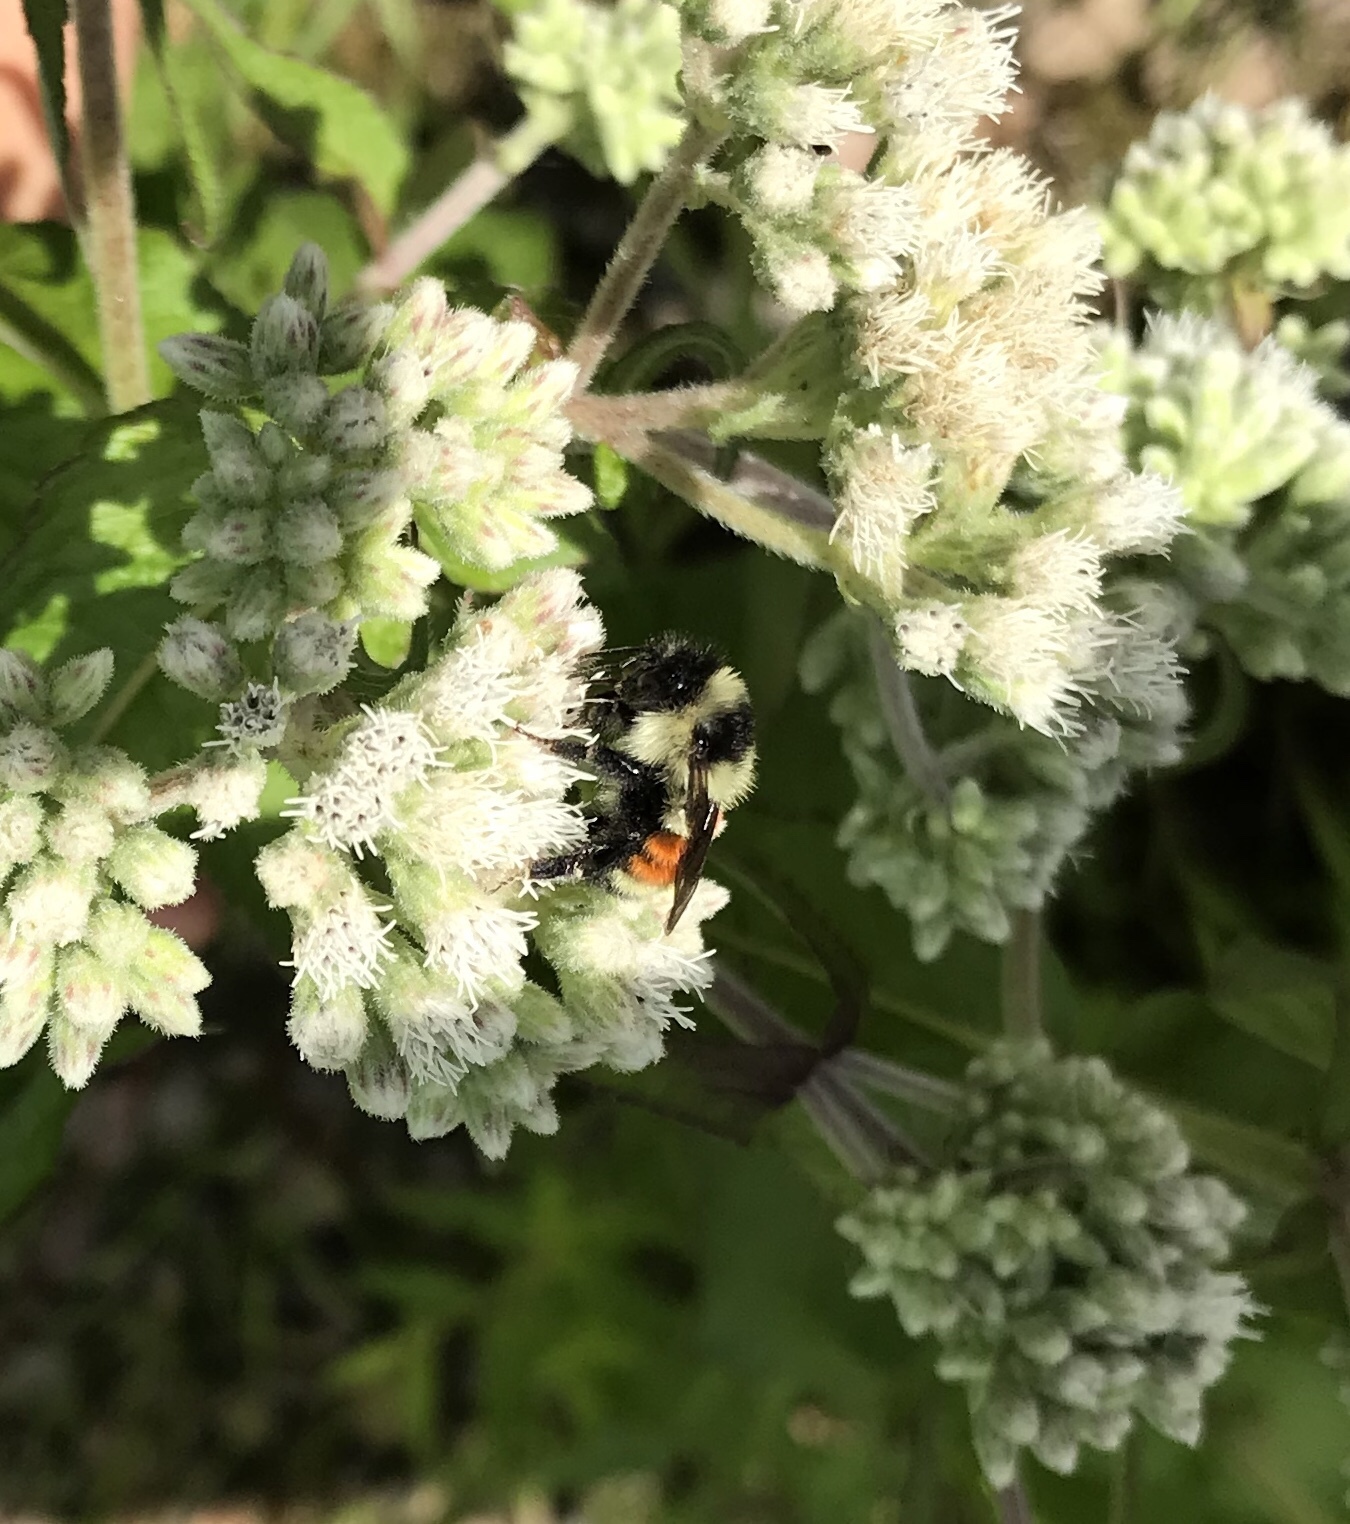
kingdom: Animalia
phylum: Arthropoda
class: Insecta
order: Hymenoptera
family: Apidae
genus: Bombus
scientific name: Bombus ternarius
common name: Tri-colored bumble bee
